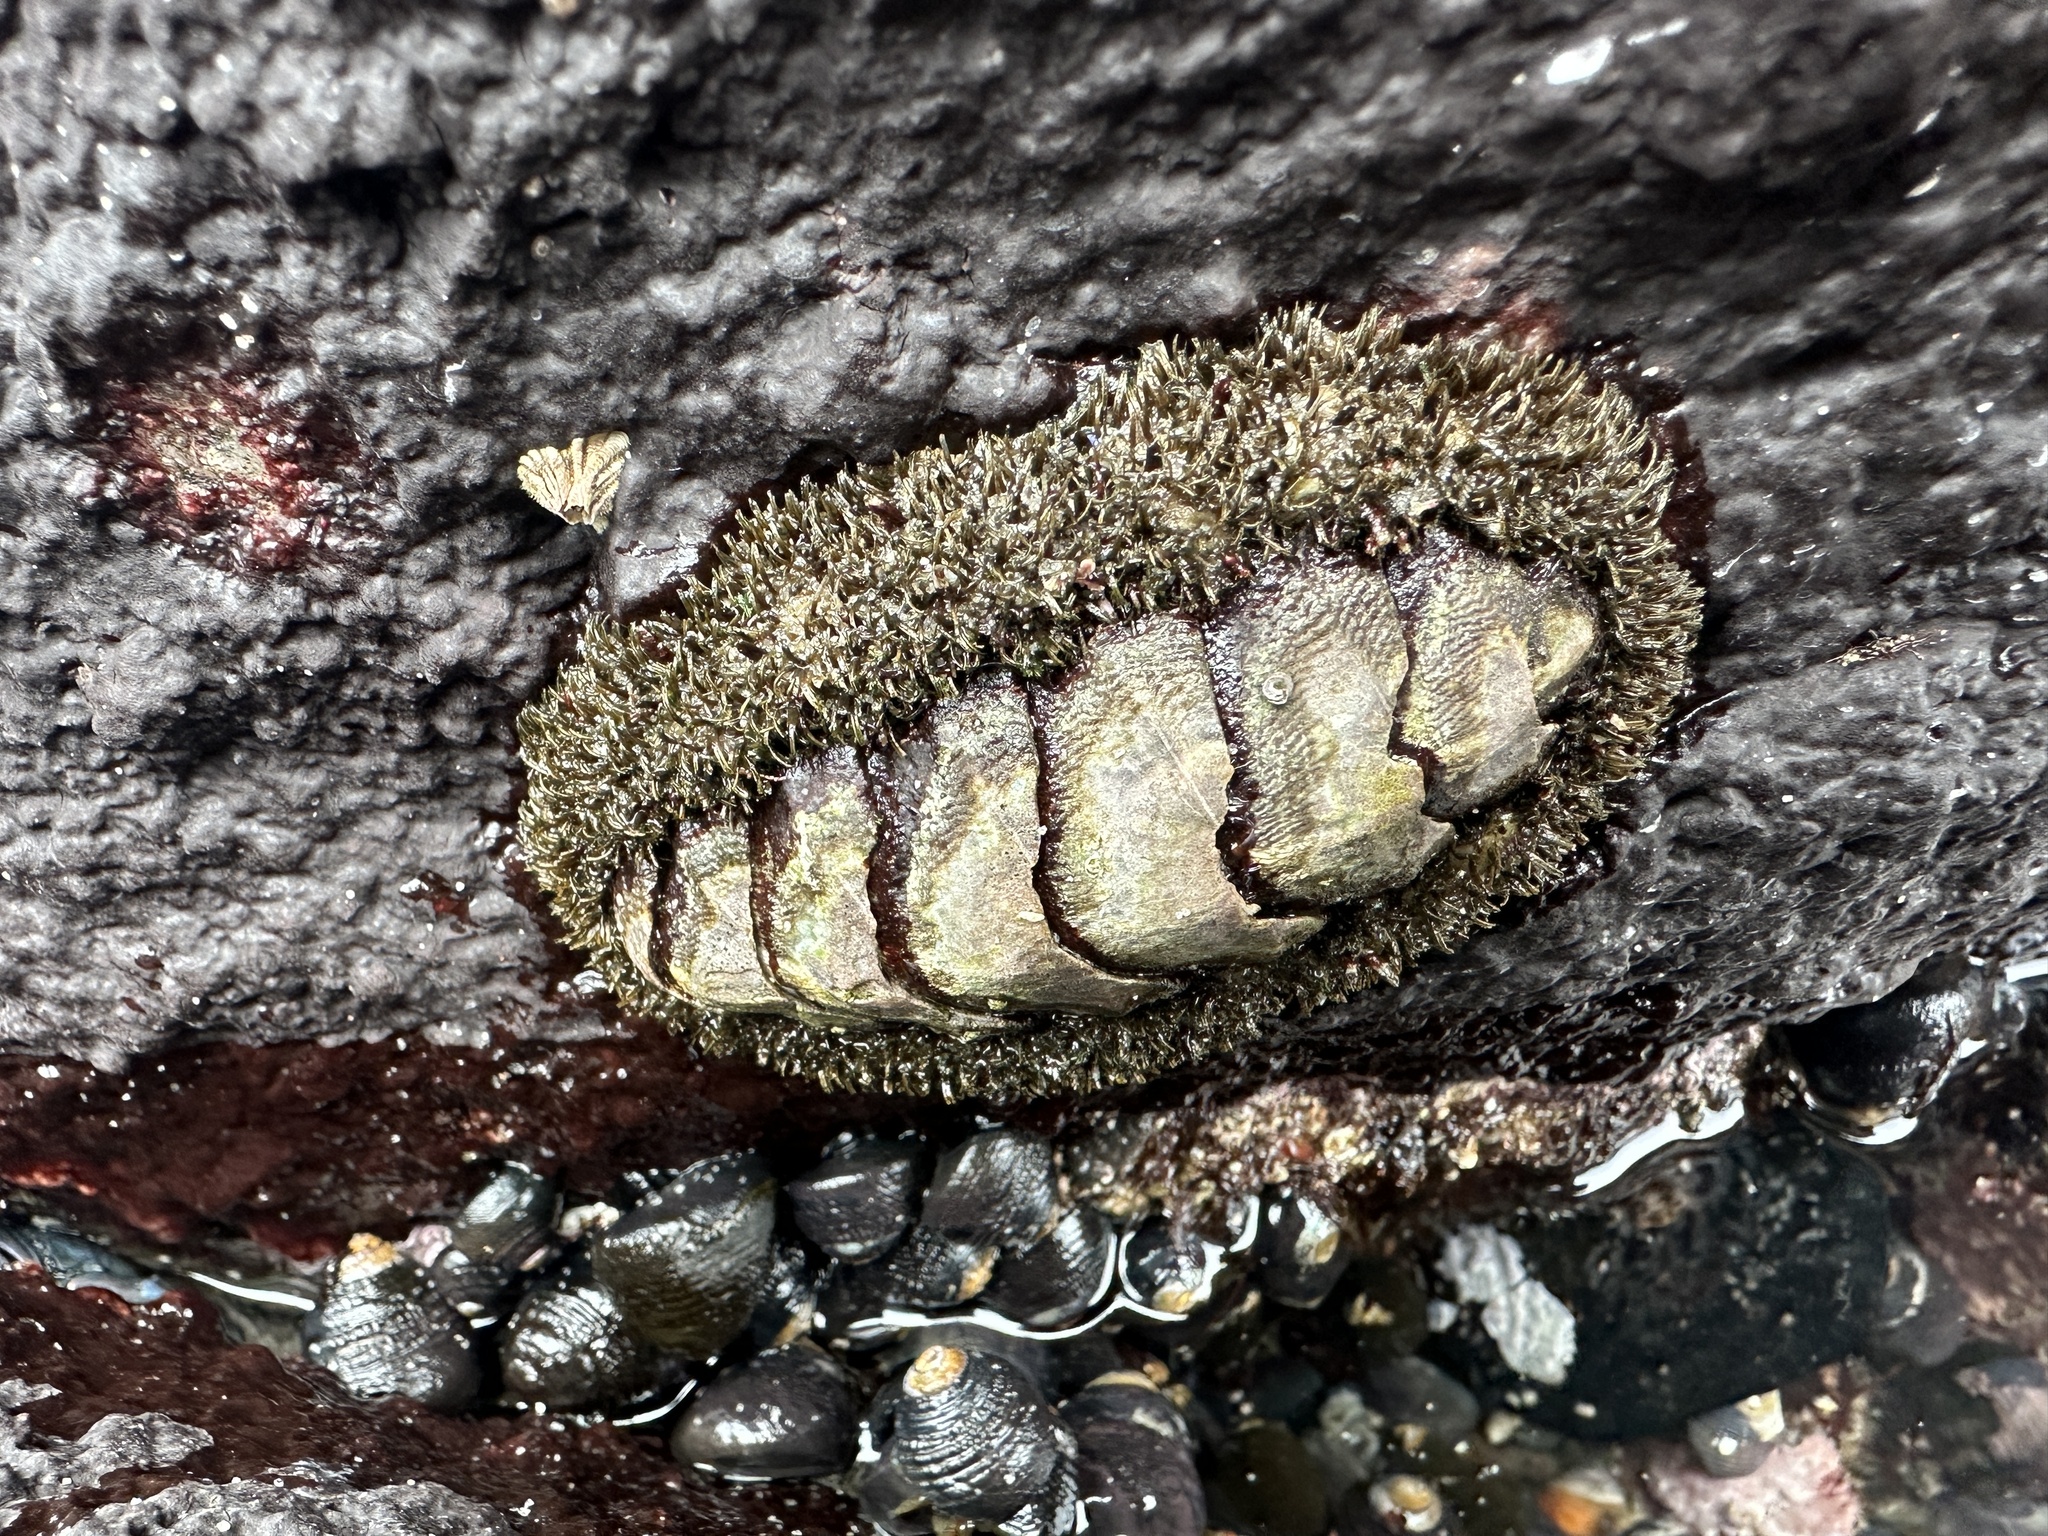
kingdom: Animalia
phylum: Mollusca
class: Polyplacophora
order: Chitonida
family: Mopaliidae
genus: Mopalia
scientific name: Mopalia muscosa
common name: Mossy chiton
